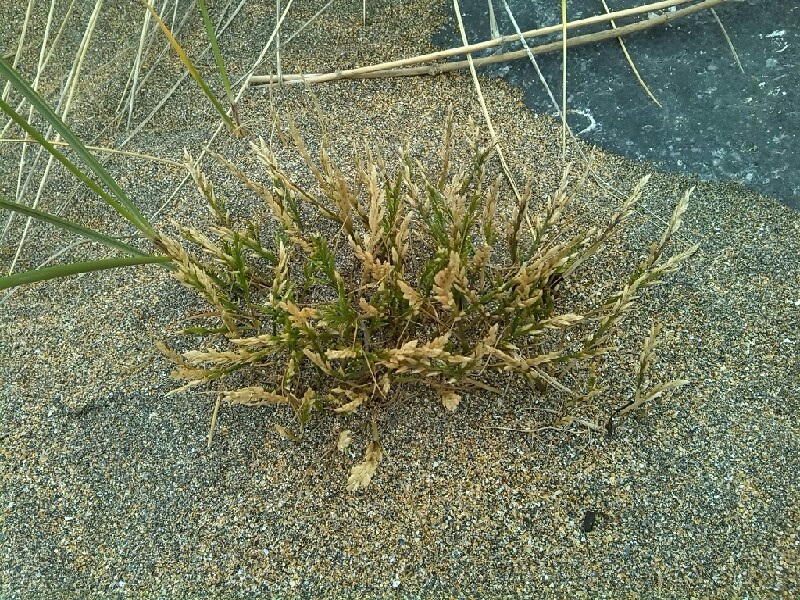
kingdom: Plantae
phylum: Tracheophyta
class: Liliopsida
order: Poales
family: Poaceae
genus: Catapodium
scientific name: Catapodium marinum
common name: Sea fern-grass
